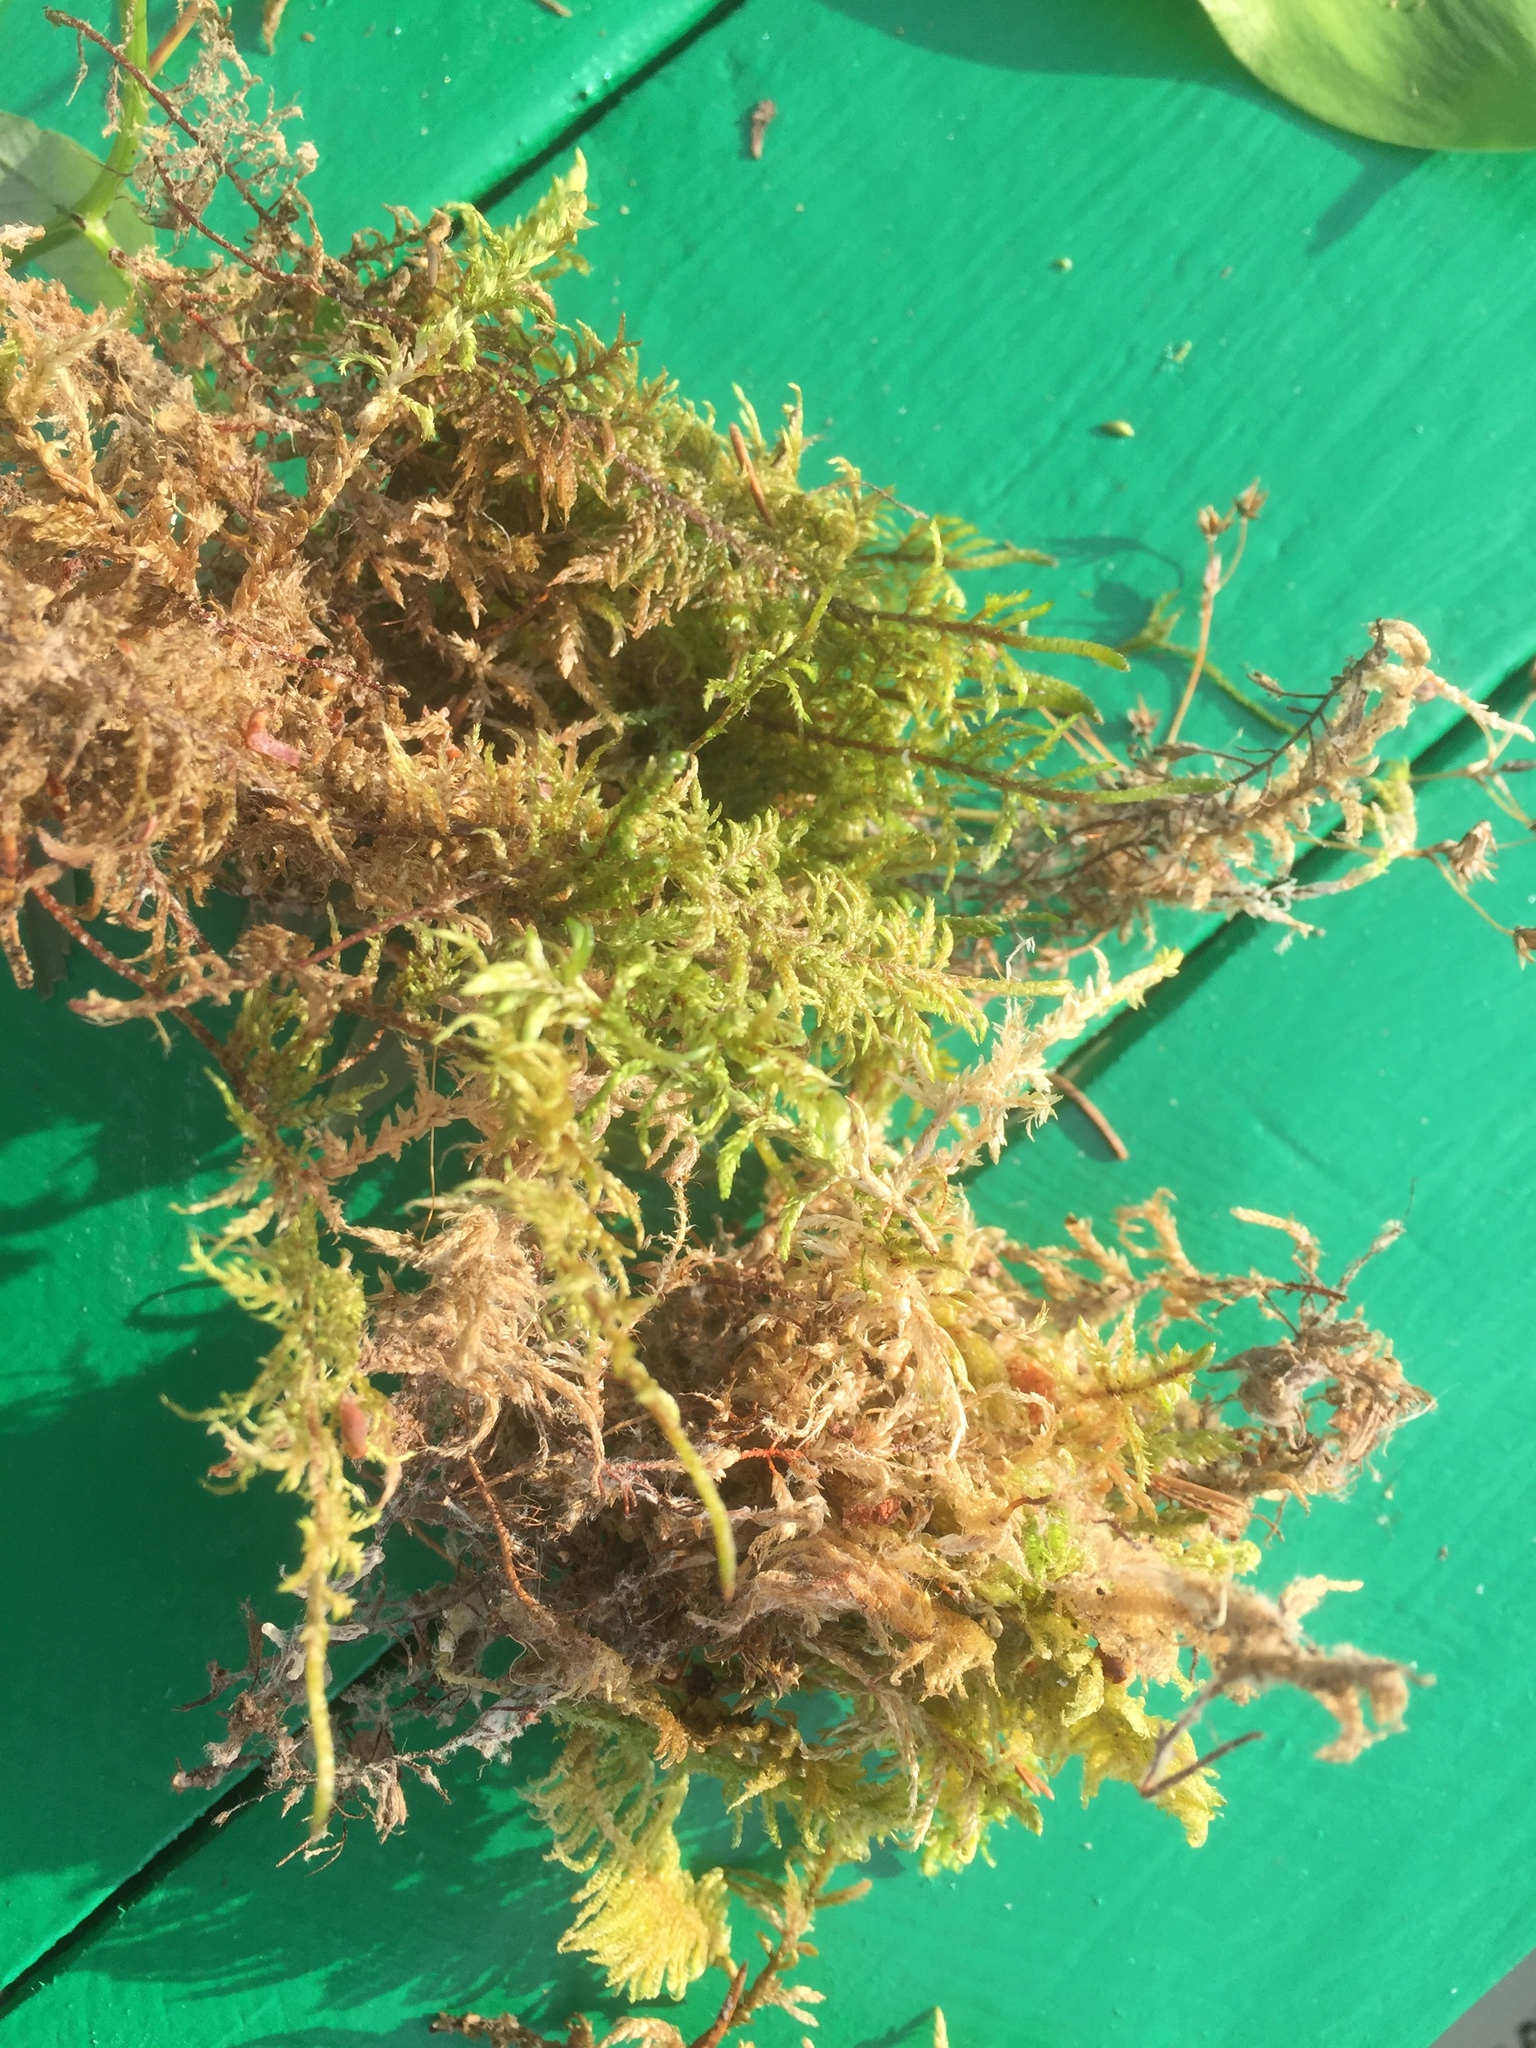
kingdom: Plantae
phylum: Bryophyta
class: Bryopsida
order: Hypnales
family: Hylocomiaceae
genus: Pleurozium
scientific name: Pleurozium schreberi
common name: Red-stemmed feather moss
